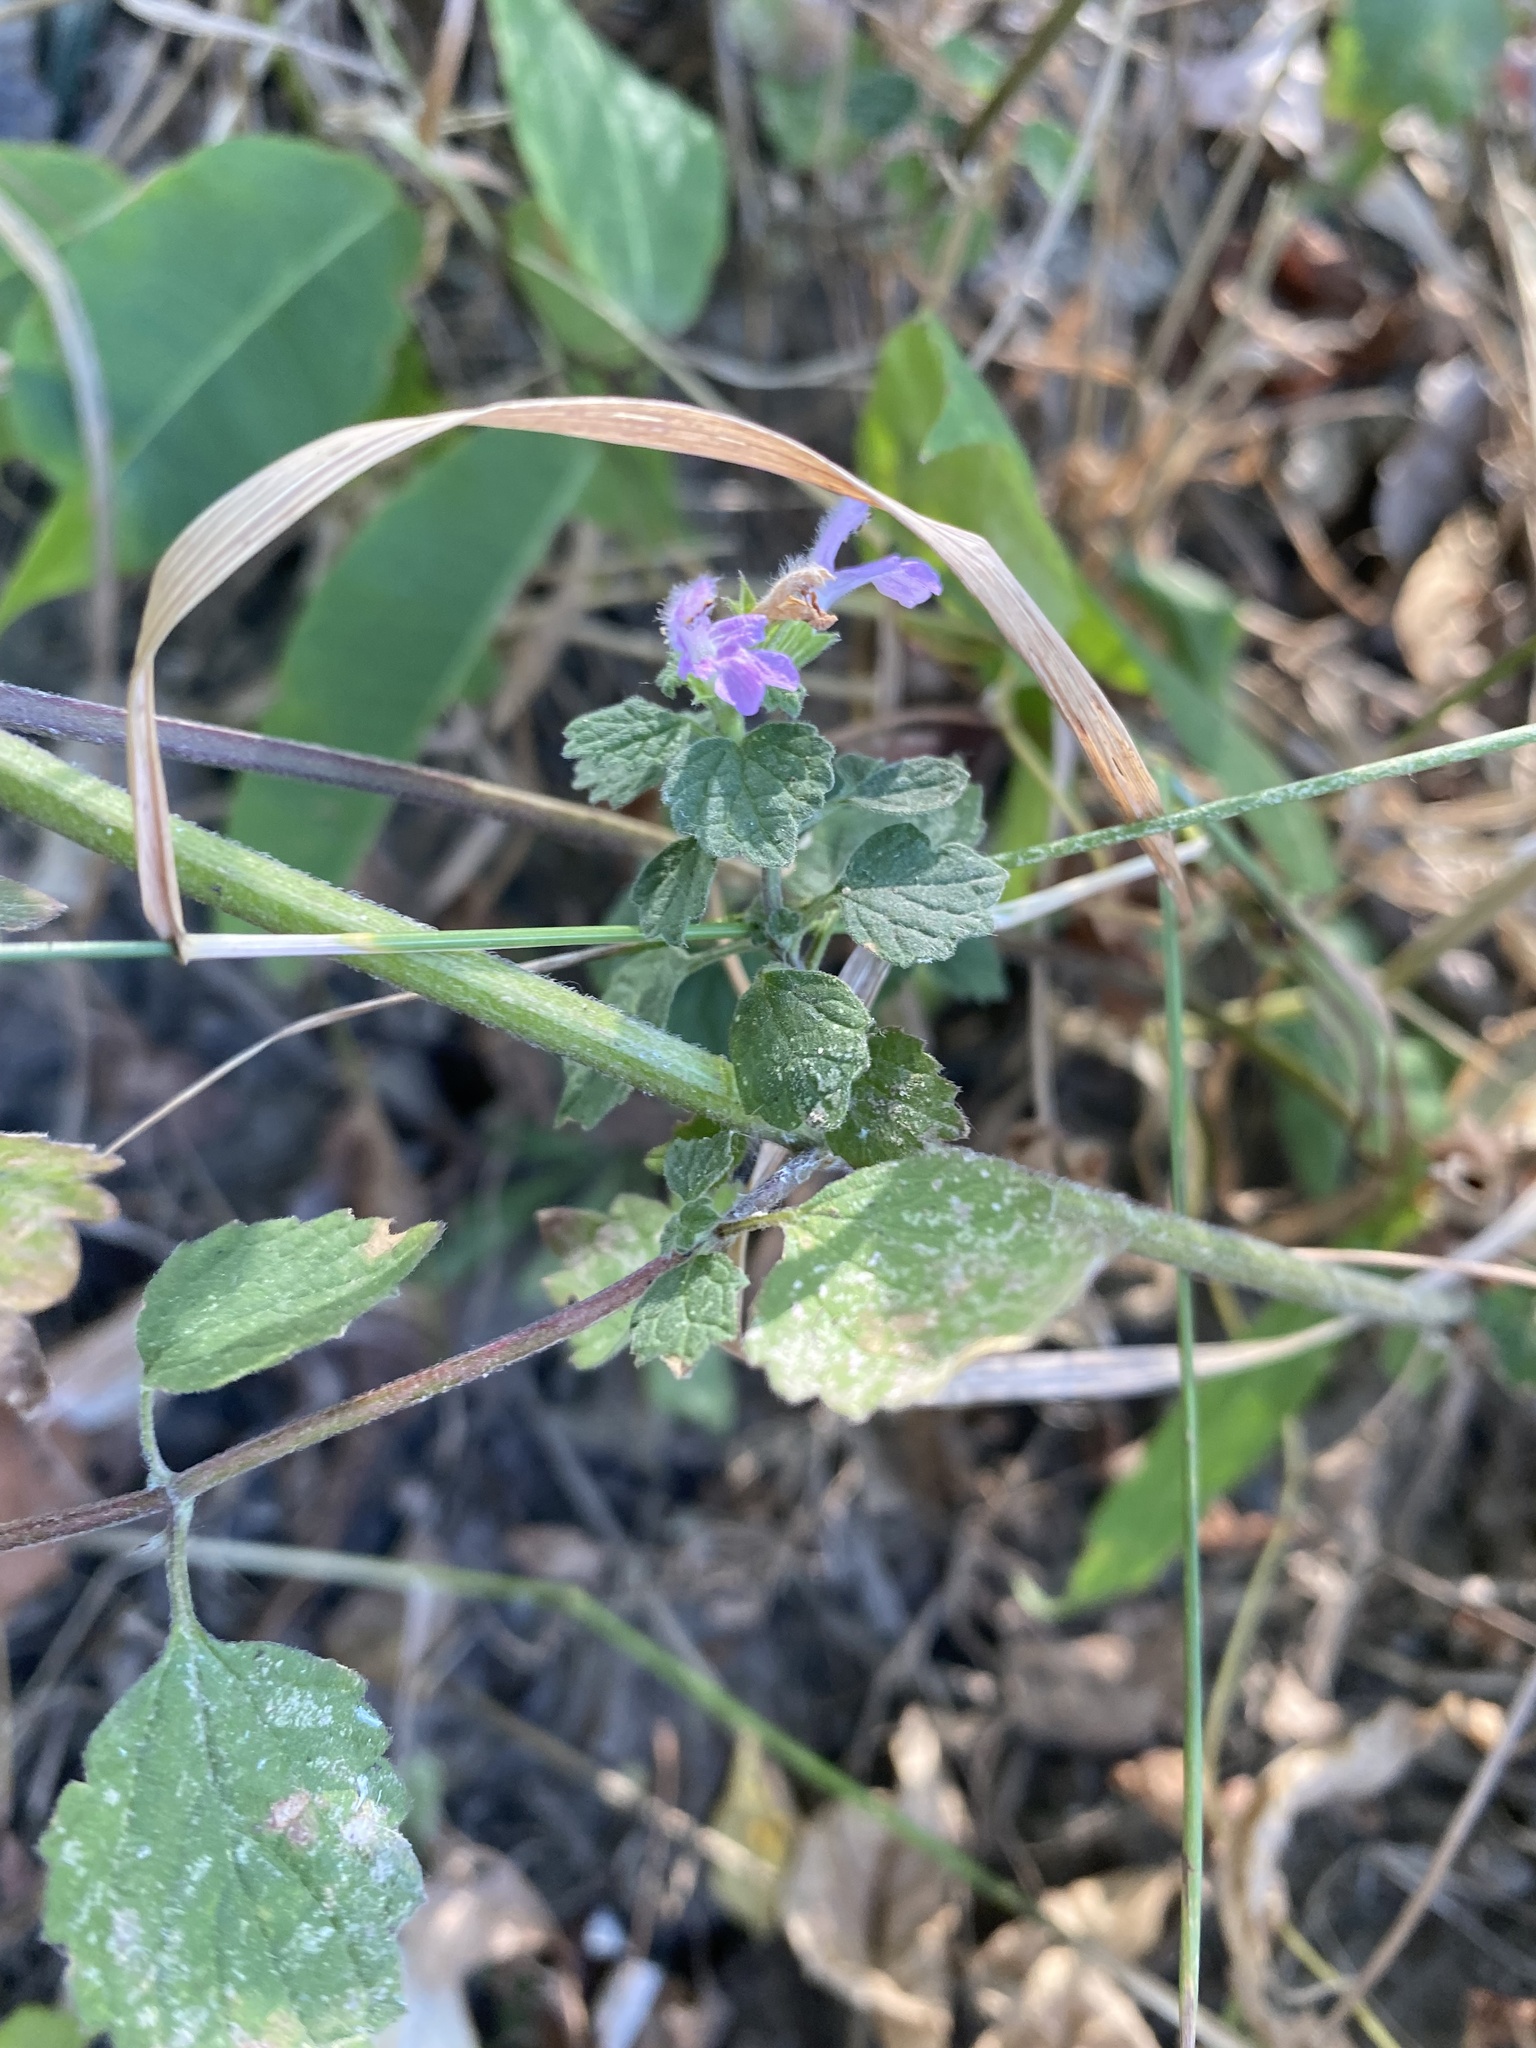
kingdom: Plantae
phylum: Tracheophyta
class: Magnoliopsida
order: Lamiales
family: Lamiaceae
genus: Ballota
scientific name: Ballota nigra
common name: Black horehound
